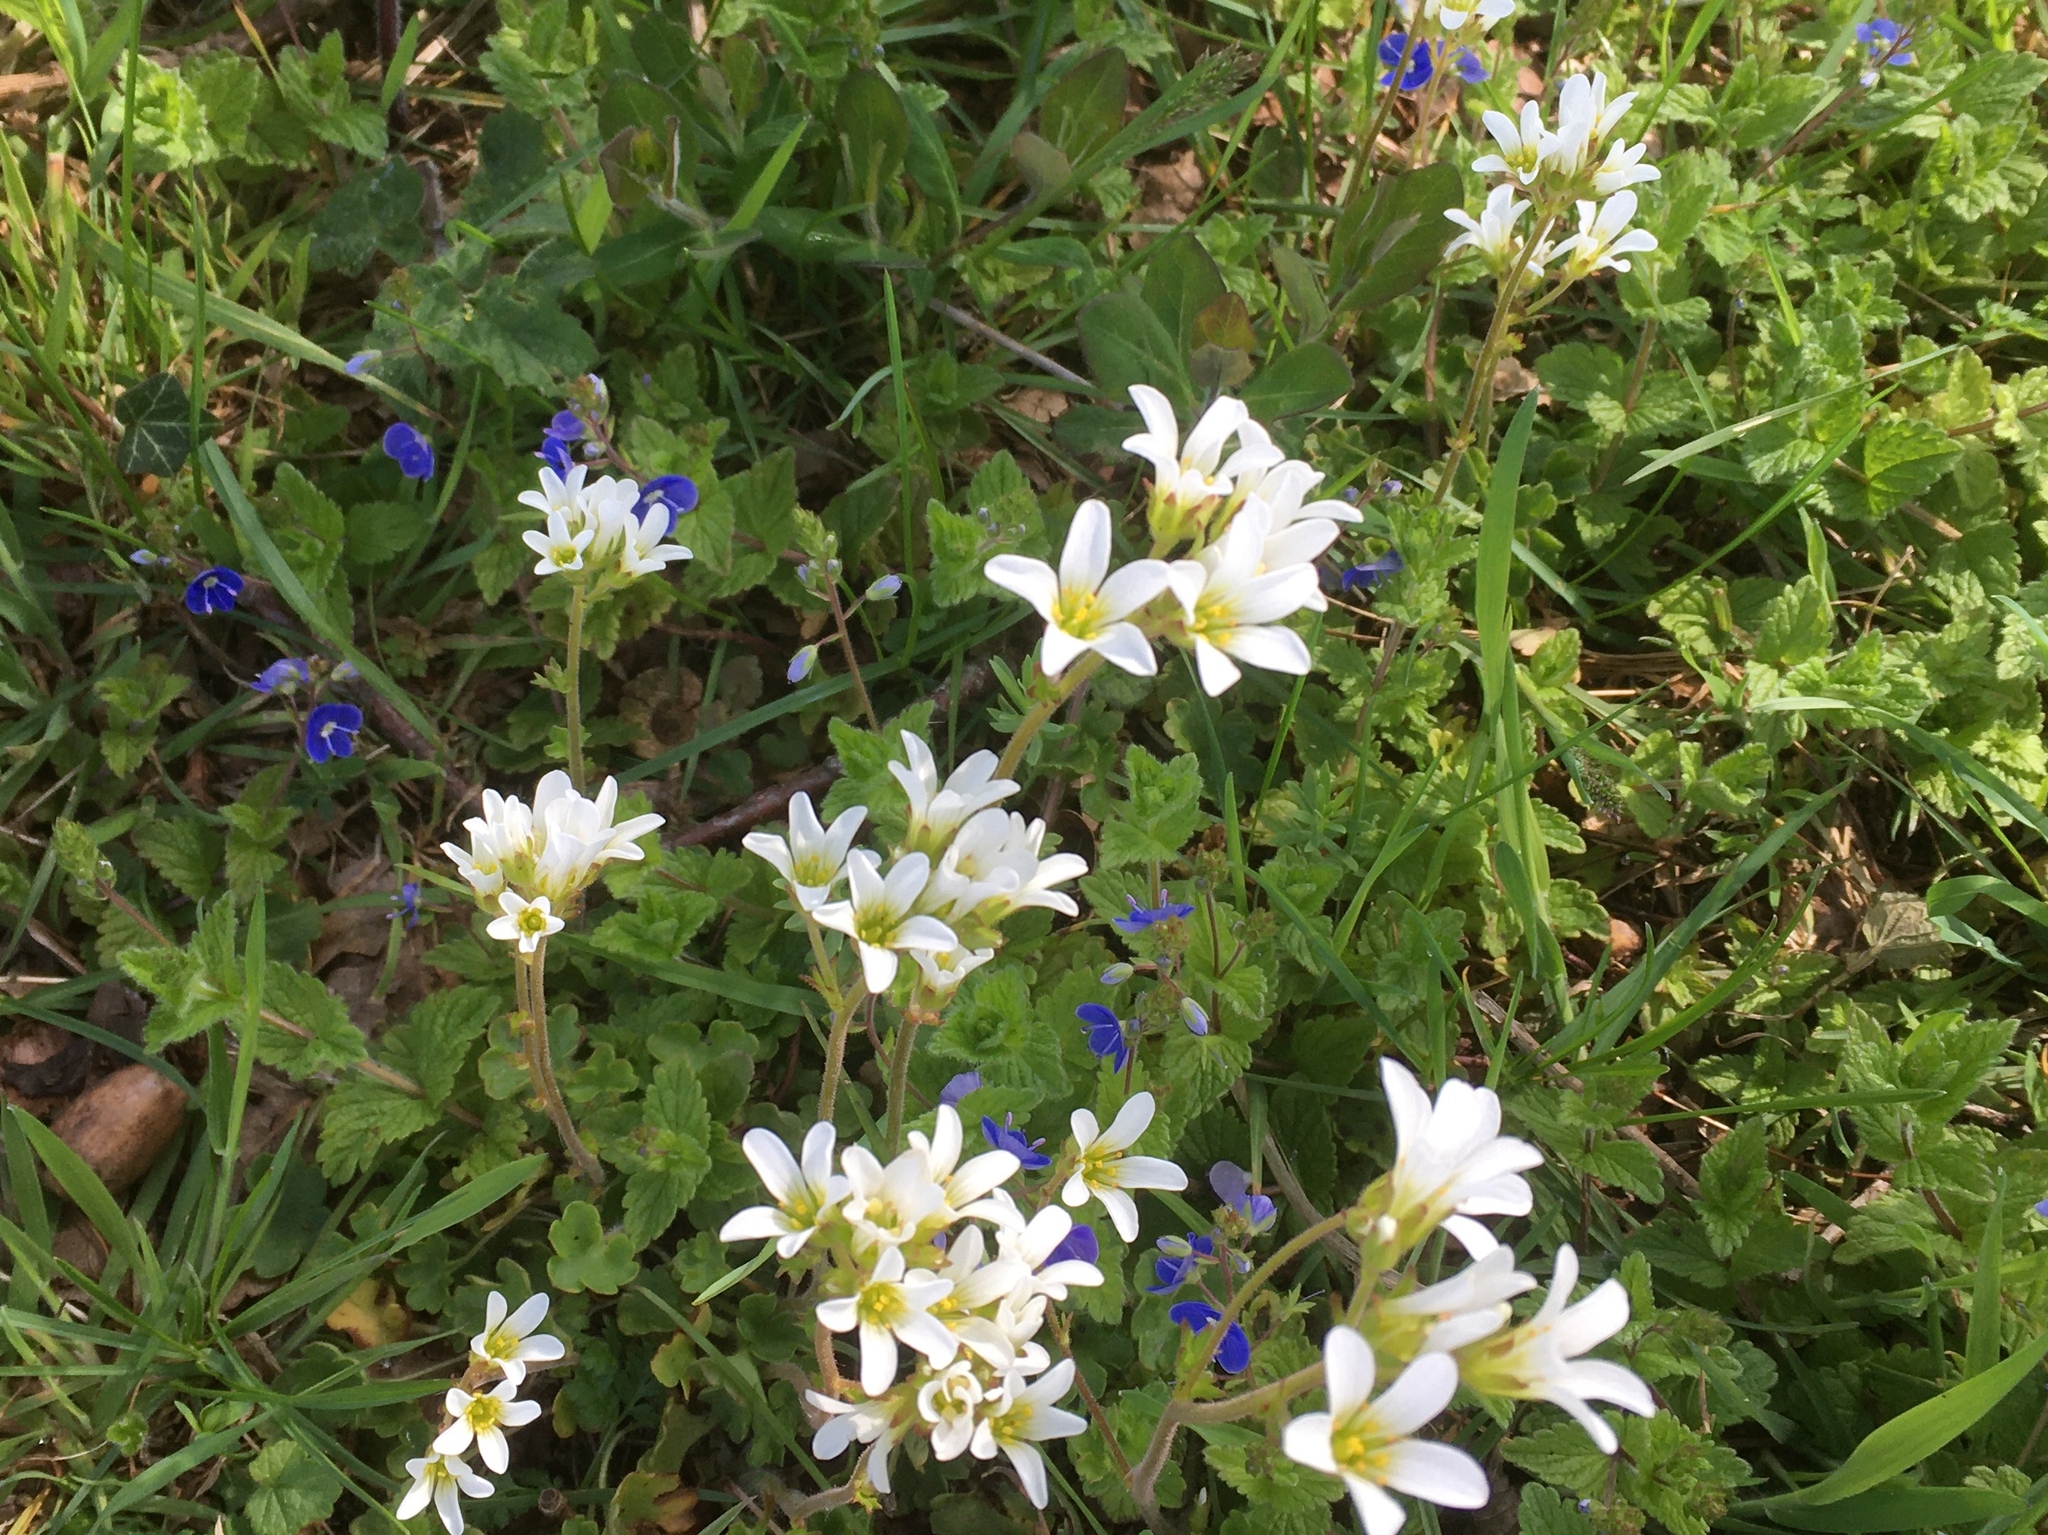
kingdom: Plantae
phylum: Tracheophyta
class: Magnoliopsida
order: Saxifragales
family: Saxifragaceae
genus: Saxifraga
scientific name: Saxifraga granulata
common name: Meadow saxifrage
